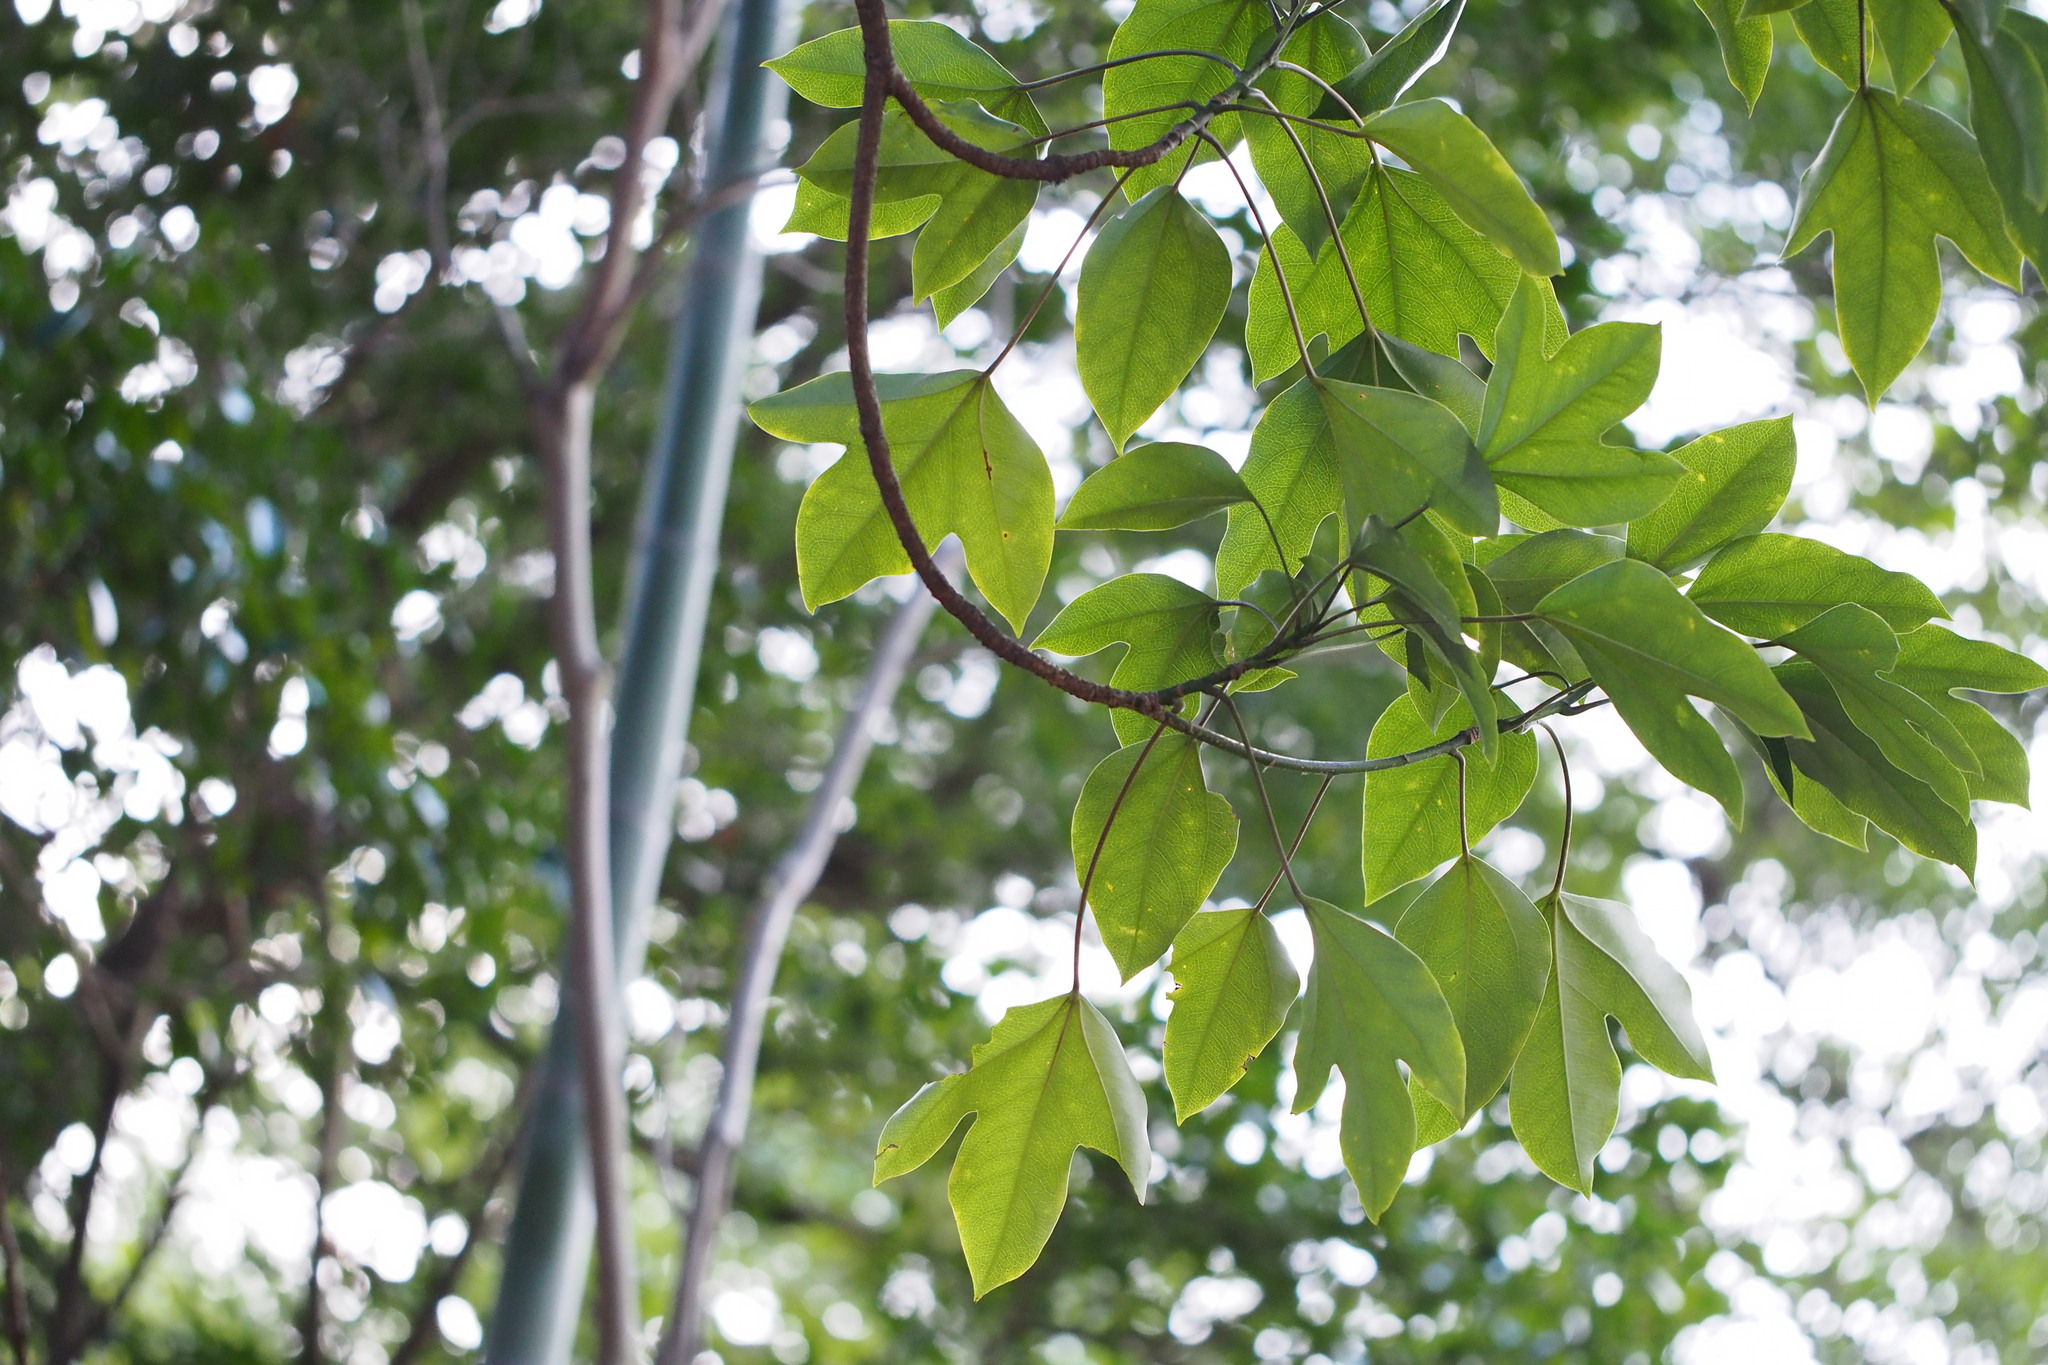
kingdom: Plantae
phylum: Tracheophyta
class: Magnoliopsida
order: Apiales
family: Araliaceae
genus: Dendropanax
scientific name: Dendropanax trifidus
